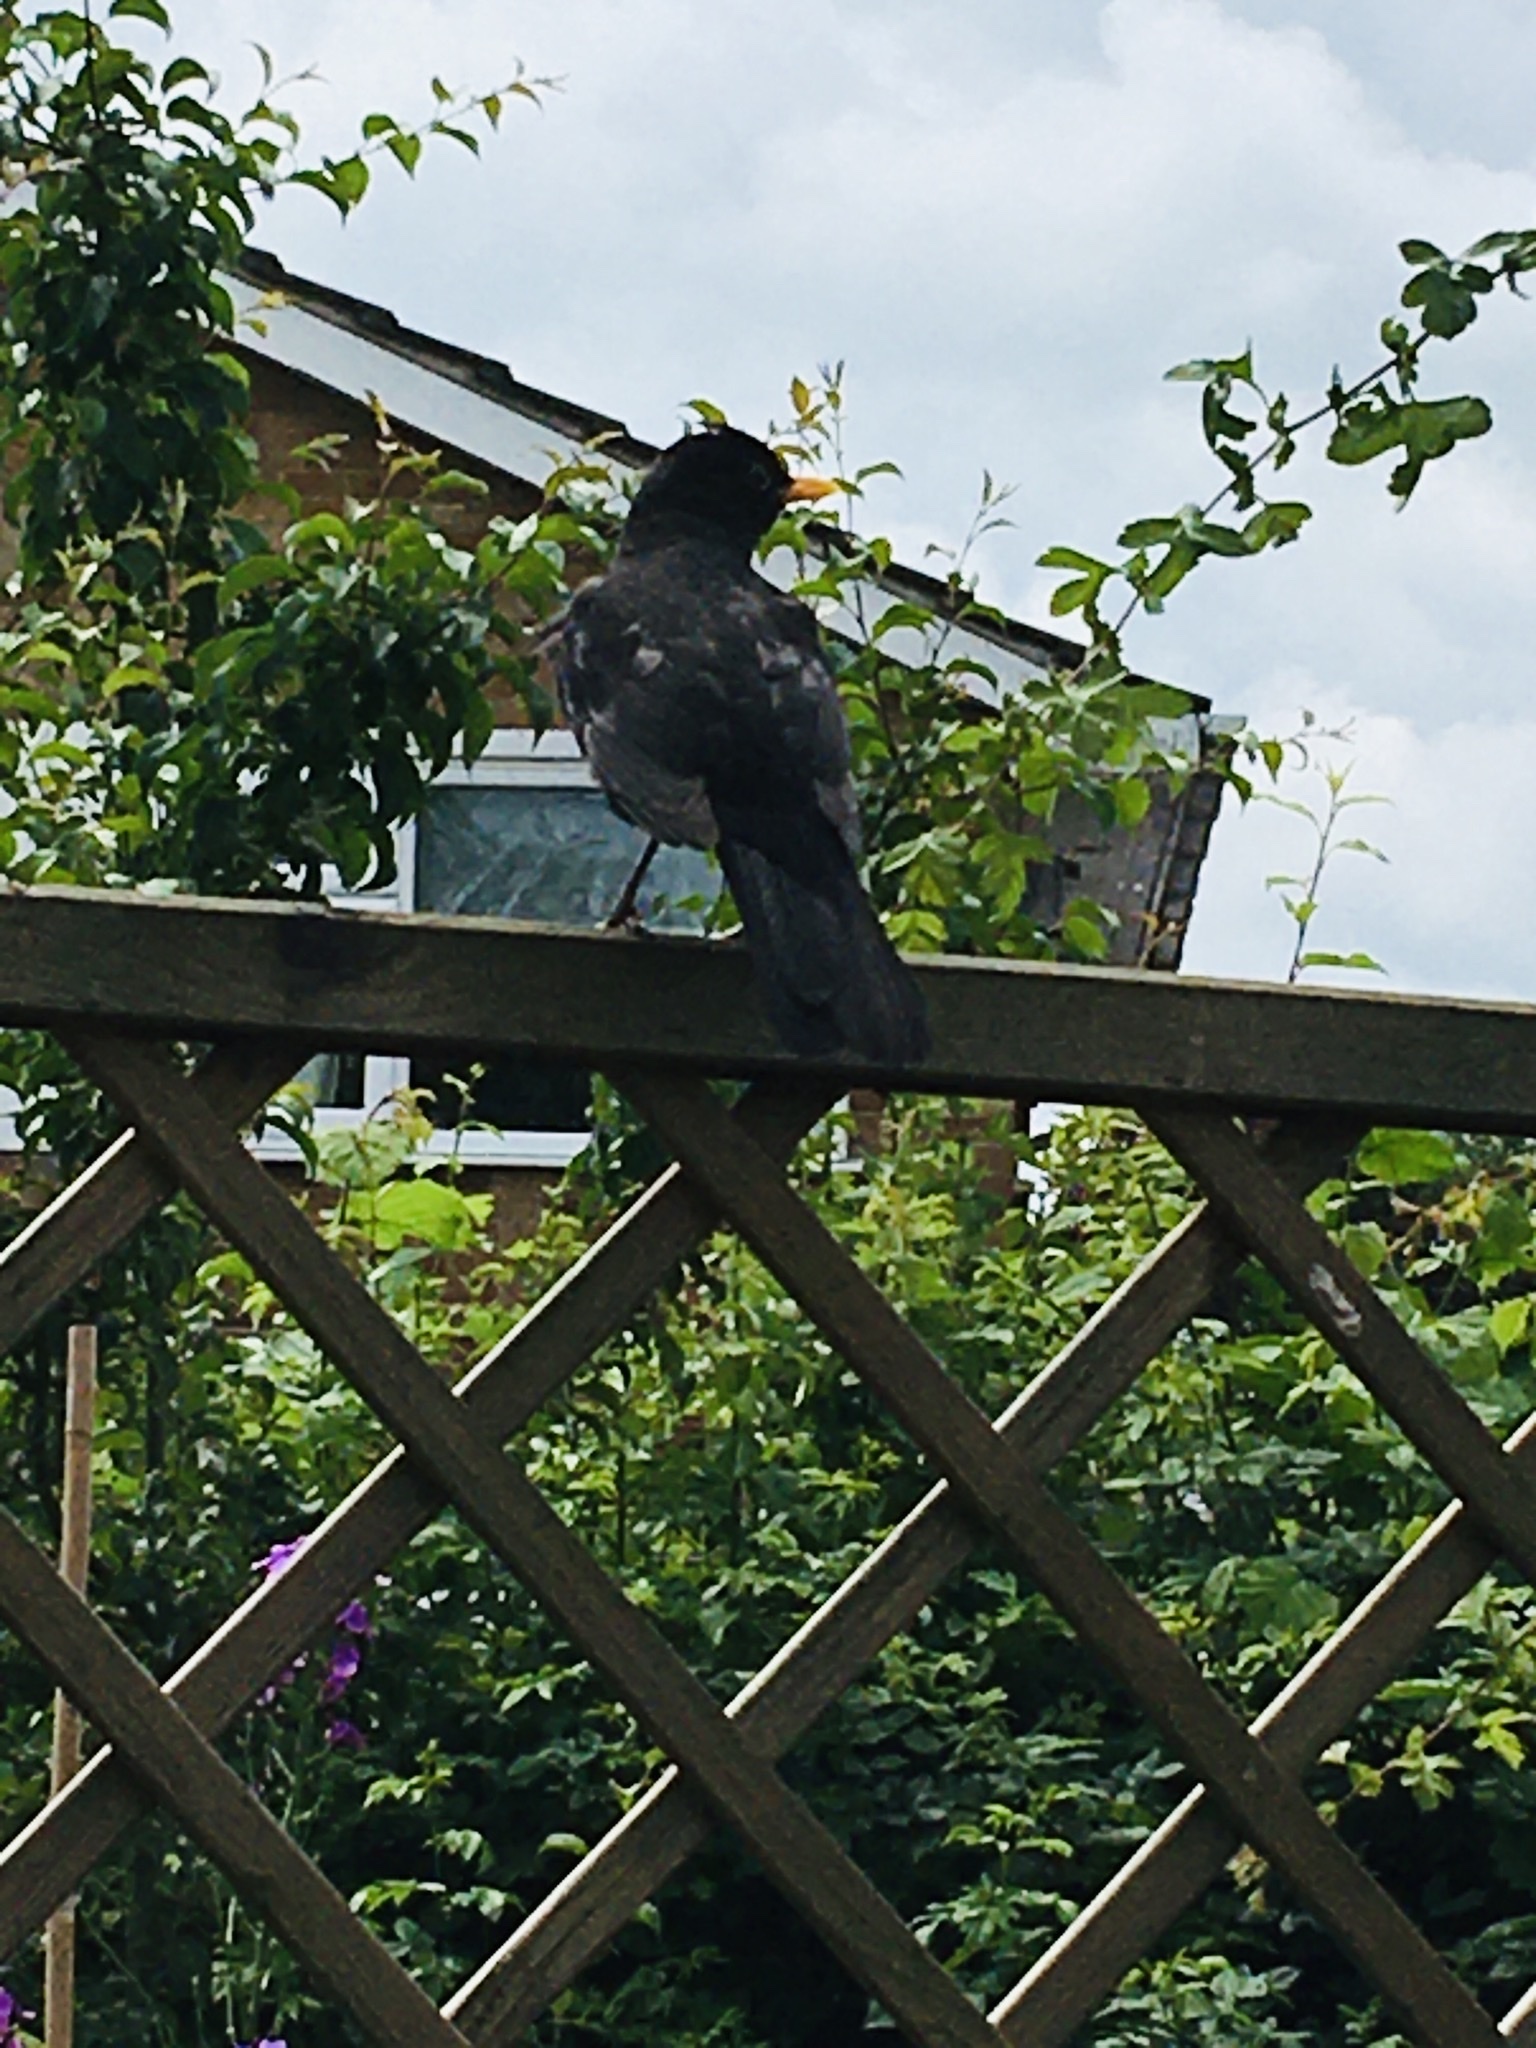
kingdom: Animalia
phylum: Chordata
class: Aves
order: Passeriformes
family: Turdidae
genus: Turdus
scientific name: Turdus merula
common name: Common blackbird
